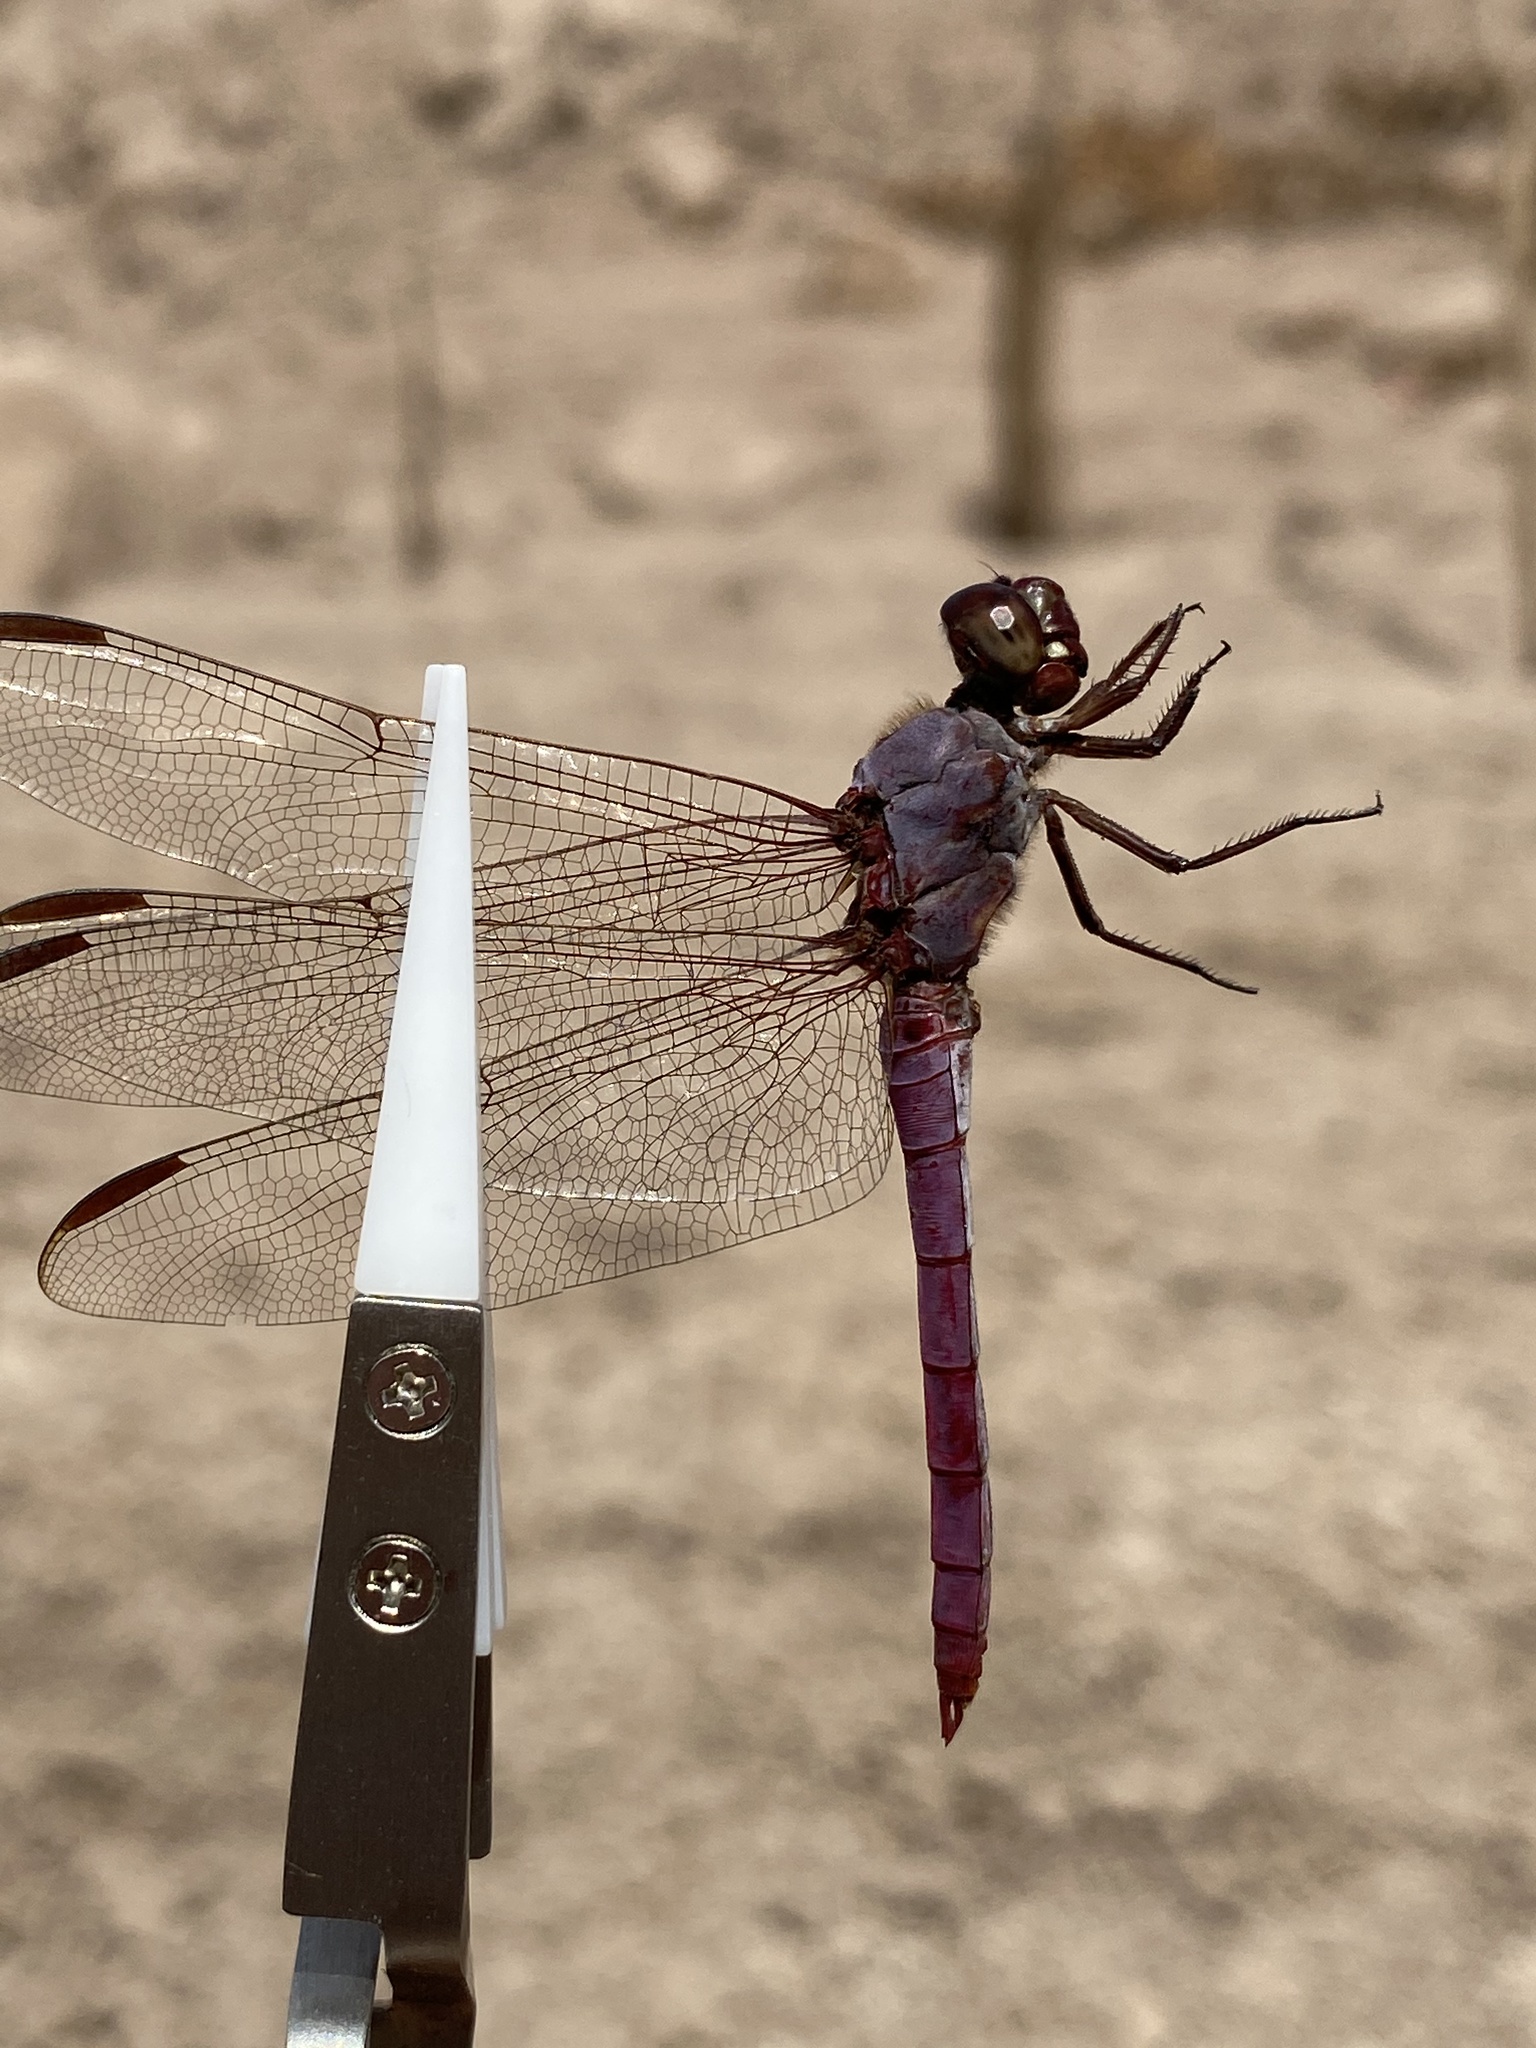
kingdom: Animalia
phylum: Arthropoda
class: Insecta
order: Odonata
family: Libellulidae
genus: Orthemis
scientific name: Orthemis ferruginea
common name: Roseate skimmer
